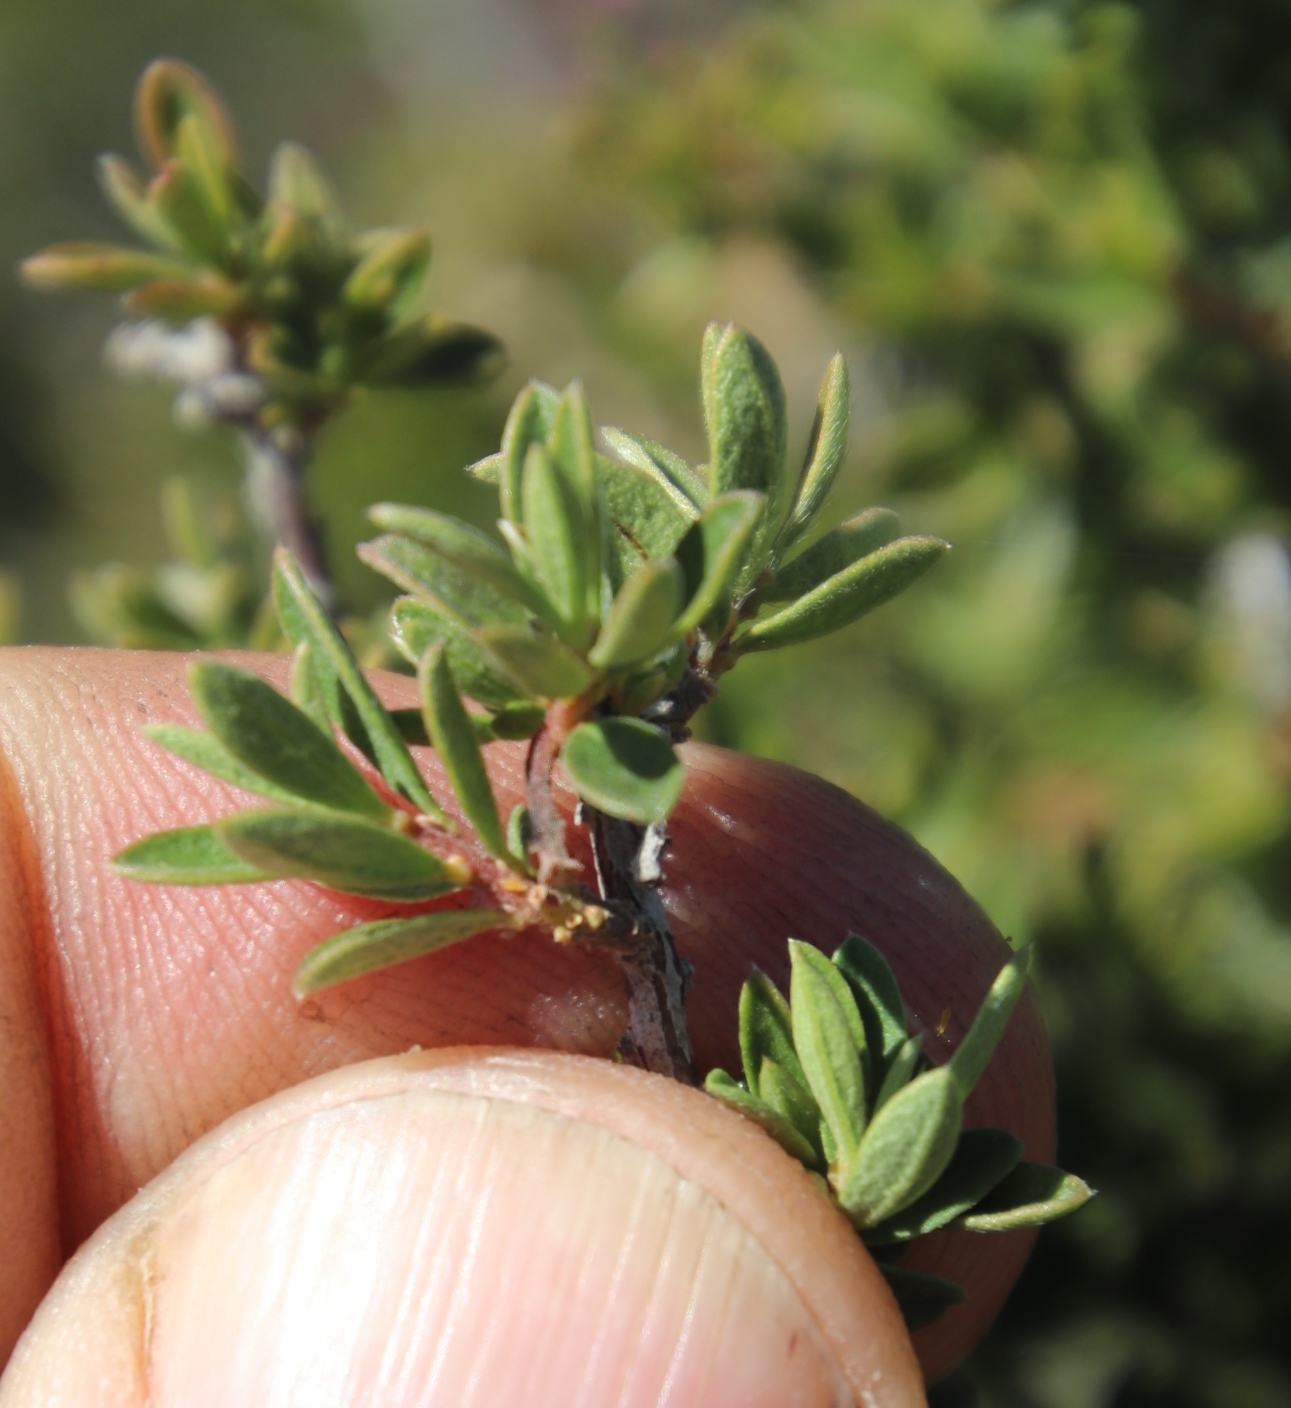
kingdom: Plantae
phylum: Tracheophyta
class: Magnoliopsida
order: Ericales
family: Ebenaceae
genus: Diospyros
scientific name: Diospyros pubescens
